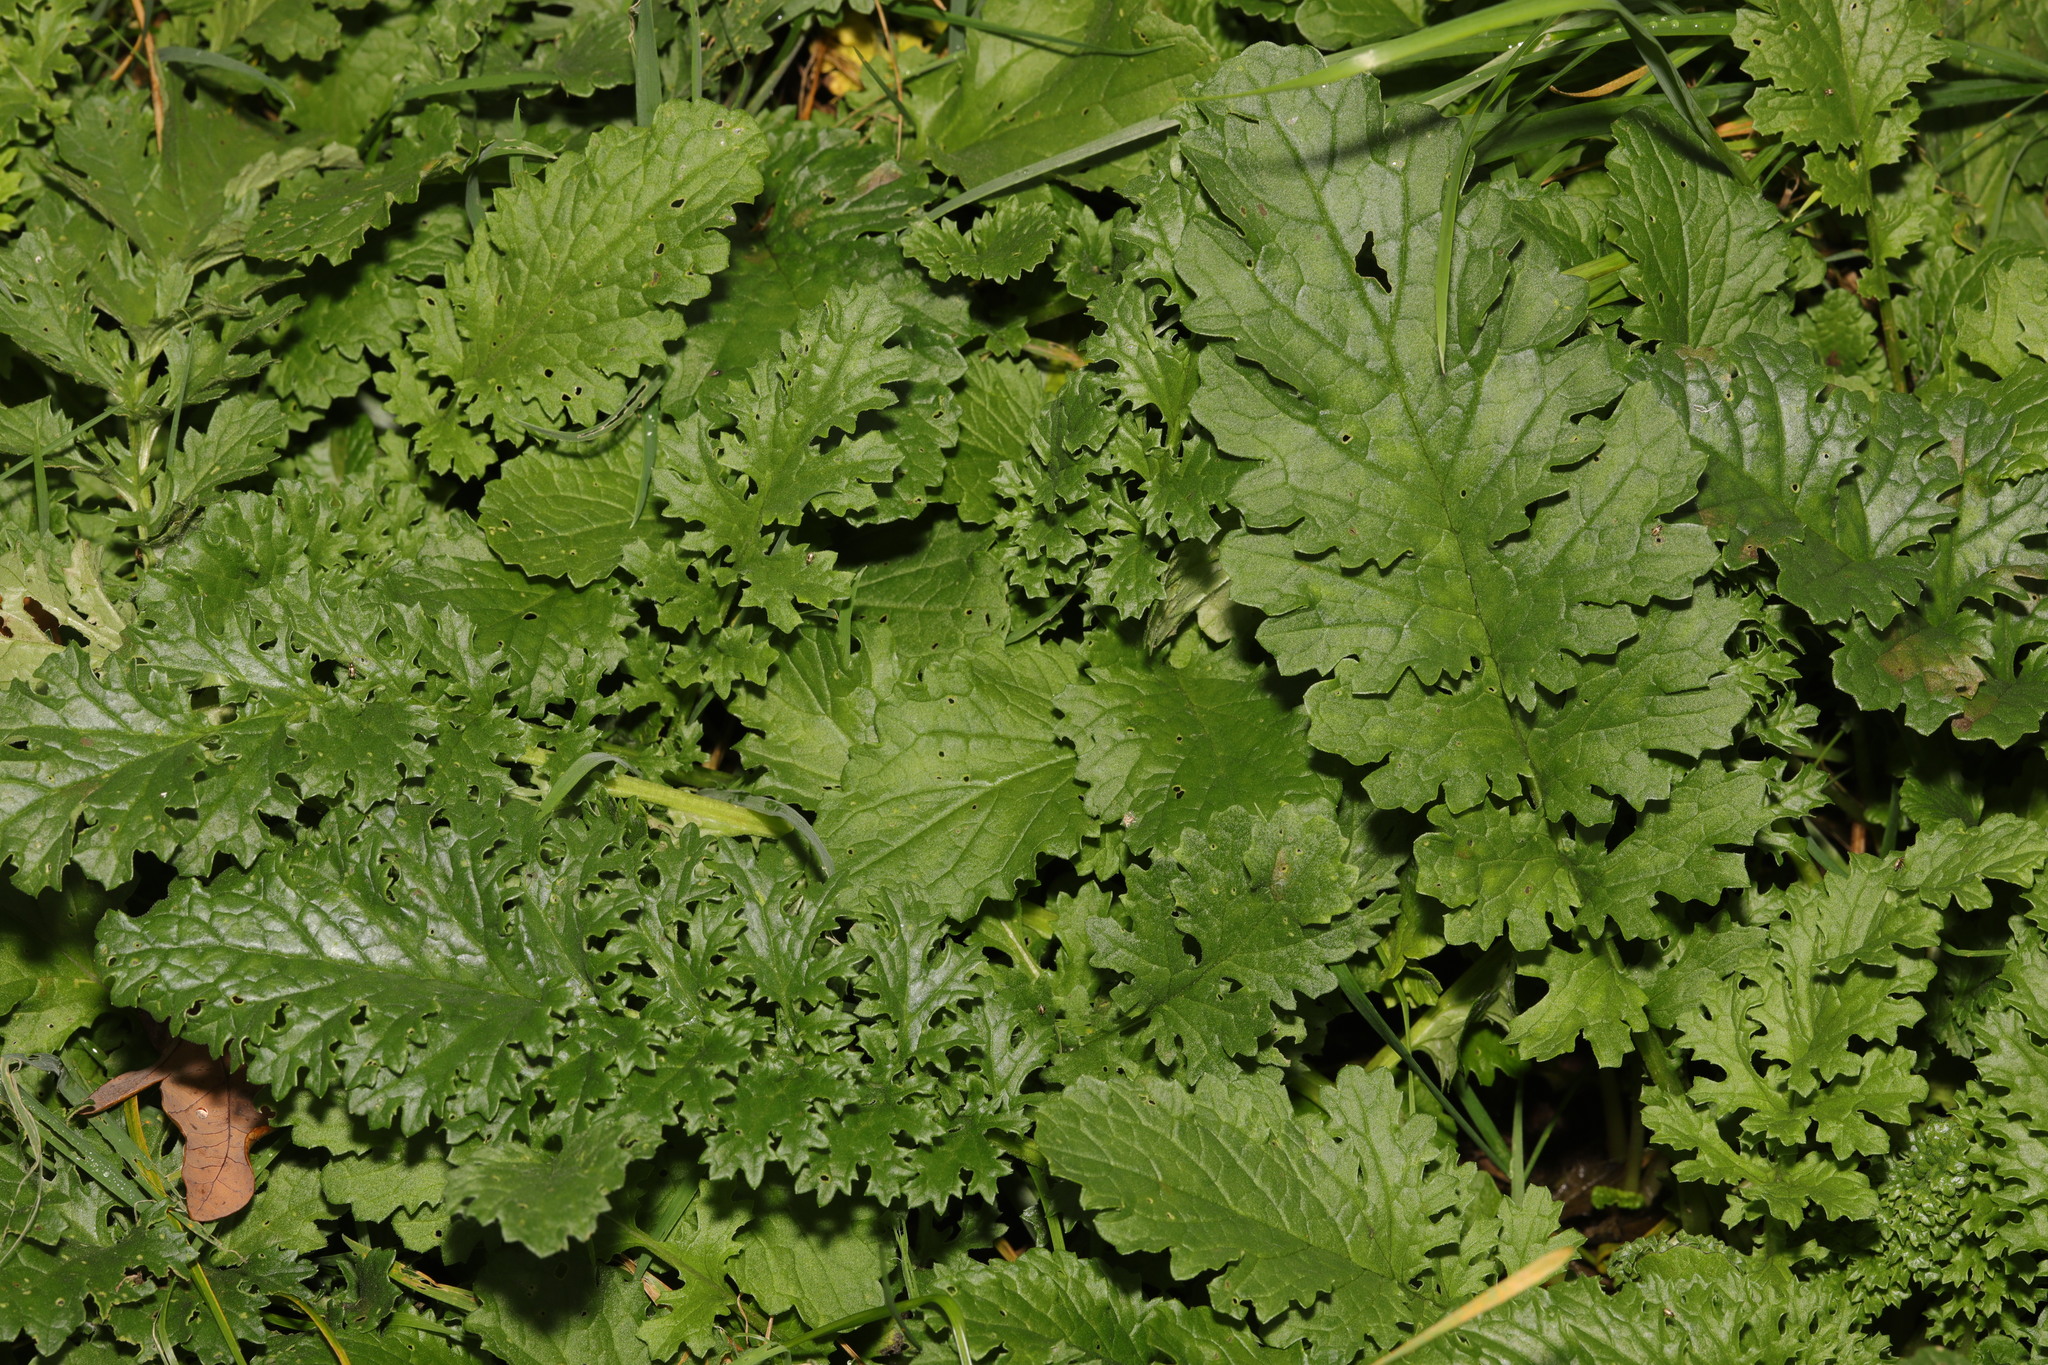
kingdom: Plantae
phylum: Tracheophyta
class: Magnoliopsida
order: Asterales
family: Asteraceae
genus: Jacobaea
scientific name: Jacobaea vulgaris
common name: Stinking willie
